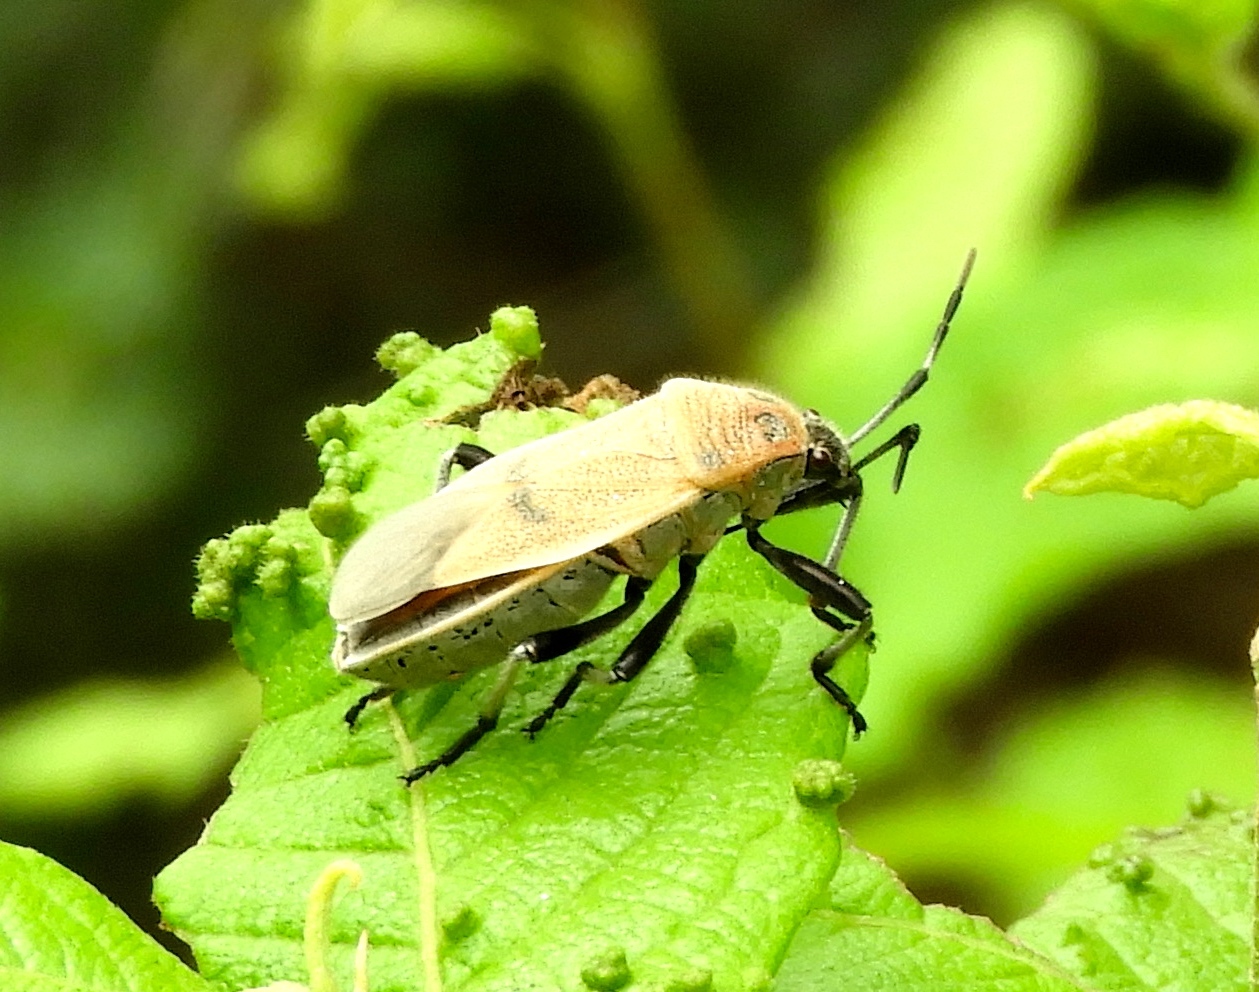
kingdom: Animalia
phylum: Arthropoda
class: Insecta
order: Hemiptera
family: Largidae
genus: Largus
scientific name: Largus maculatus
